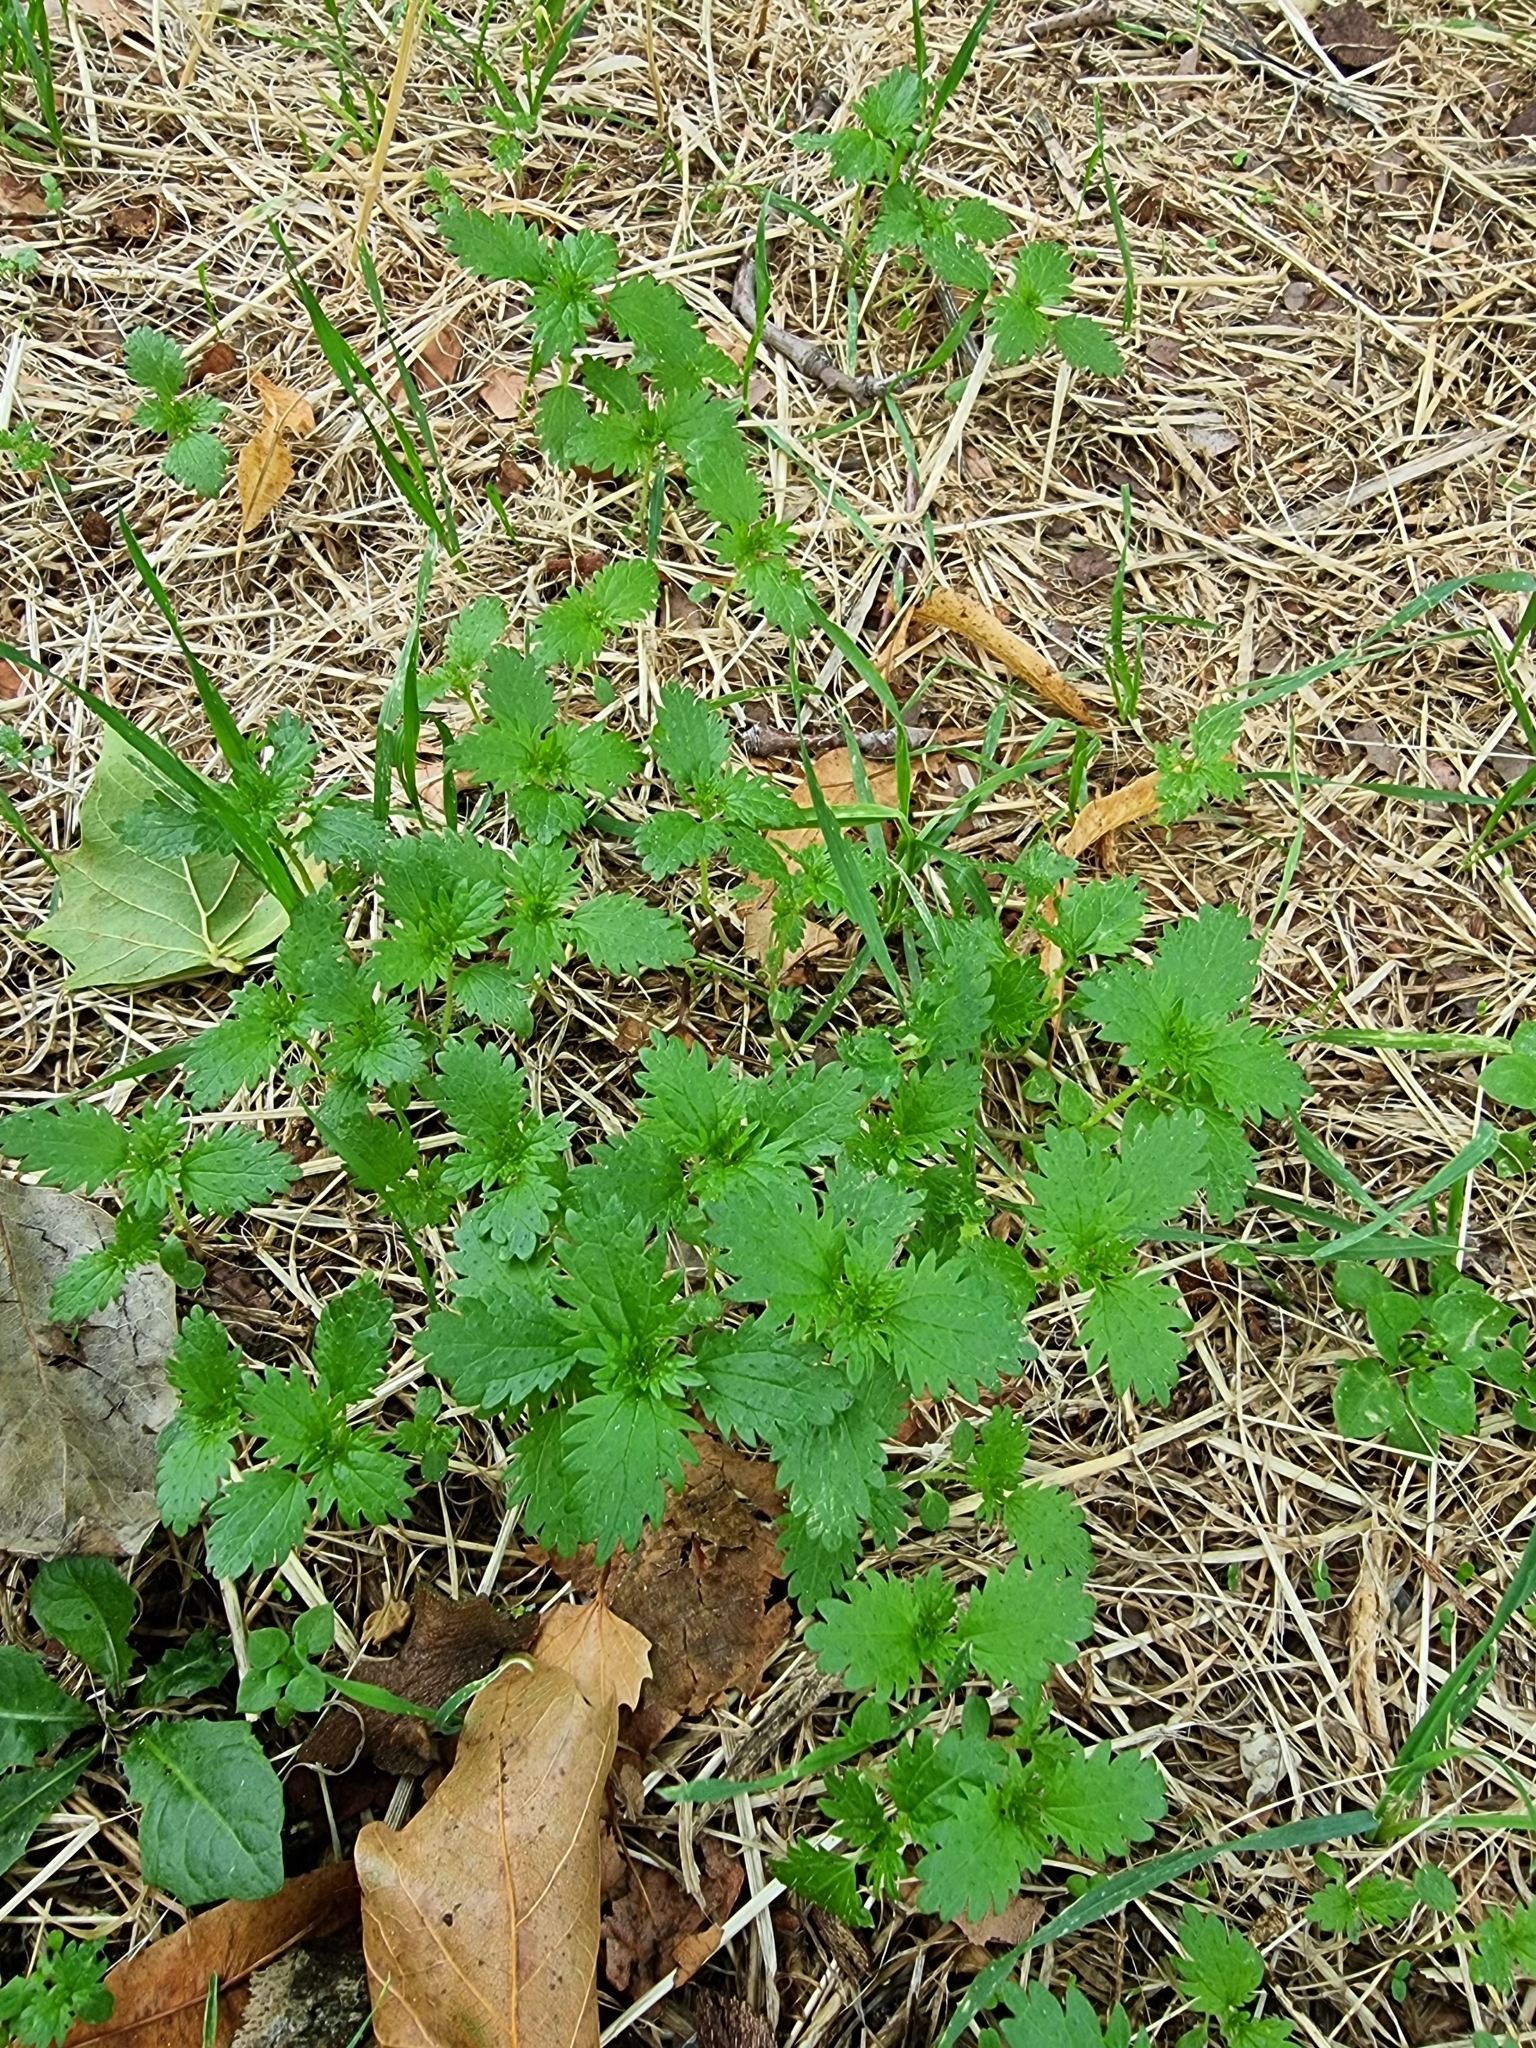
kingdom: Plantae
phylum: Tracheophyta
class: Magnoliopsida
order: Rosales
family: Urticaceae
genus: Urtica
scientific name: Urtica urens
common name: Dwarf nettle
